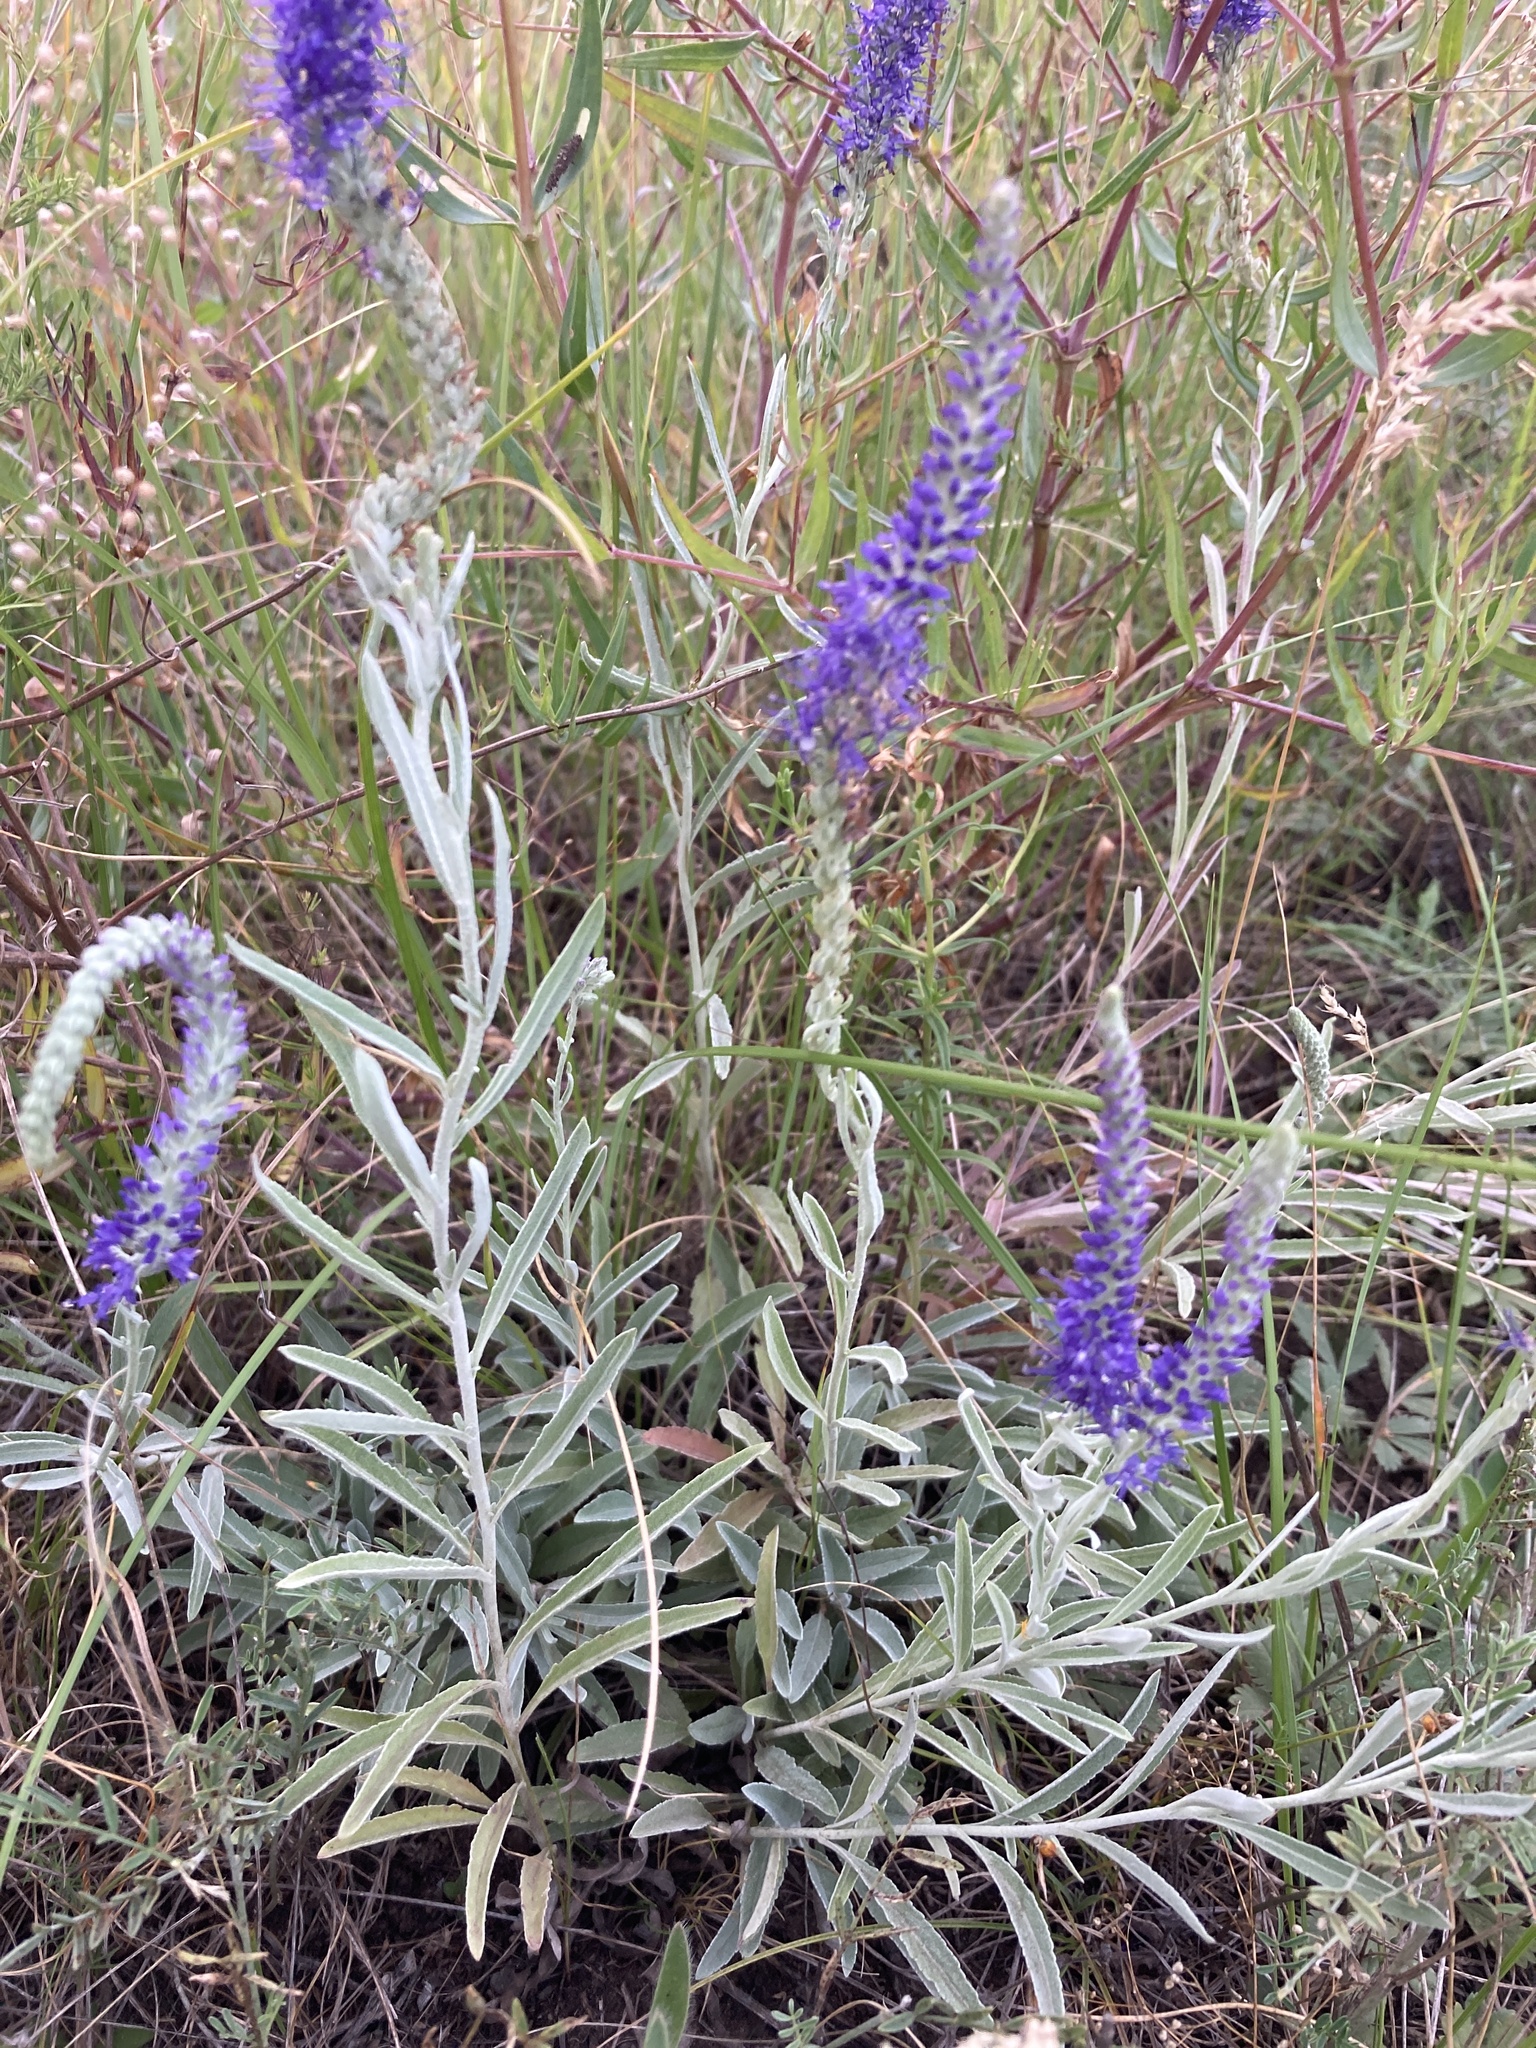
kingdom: Plantae
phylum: Tracheophyta
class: Magnoliopsida
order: Lamiales
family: Plantaginaceae
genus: Veronica
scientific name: Veronica incana
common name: Silver speedwell
